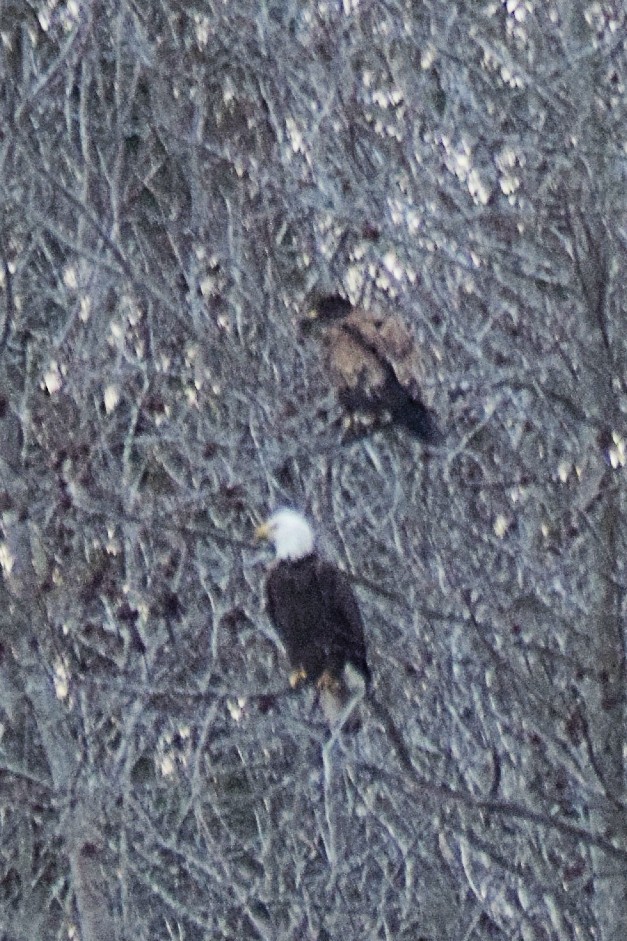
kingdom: Animalia
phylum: Chordata
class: Aves
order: Accipitriformes
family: Accipitridae
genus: Haliaeetus
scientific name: Haliaeetus leucocephalus
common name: Bald eagle
